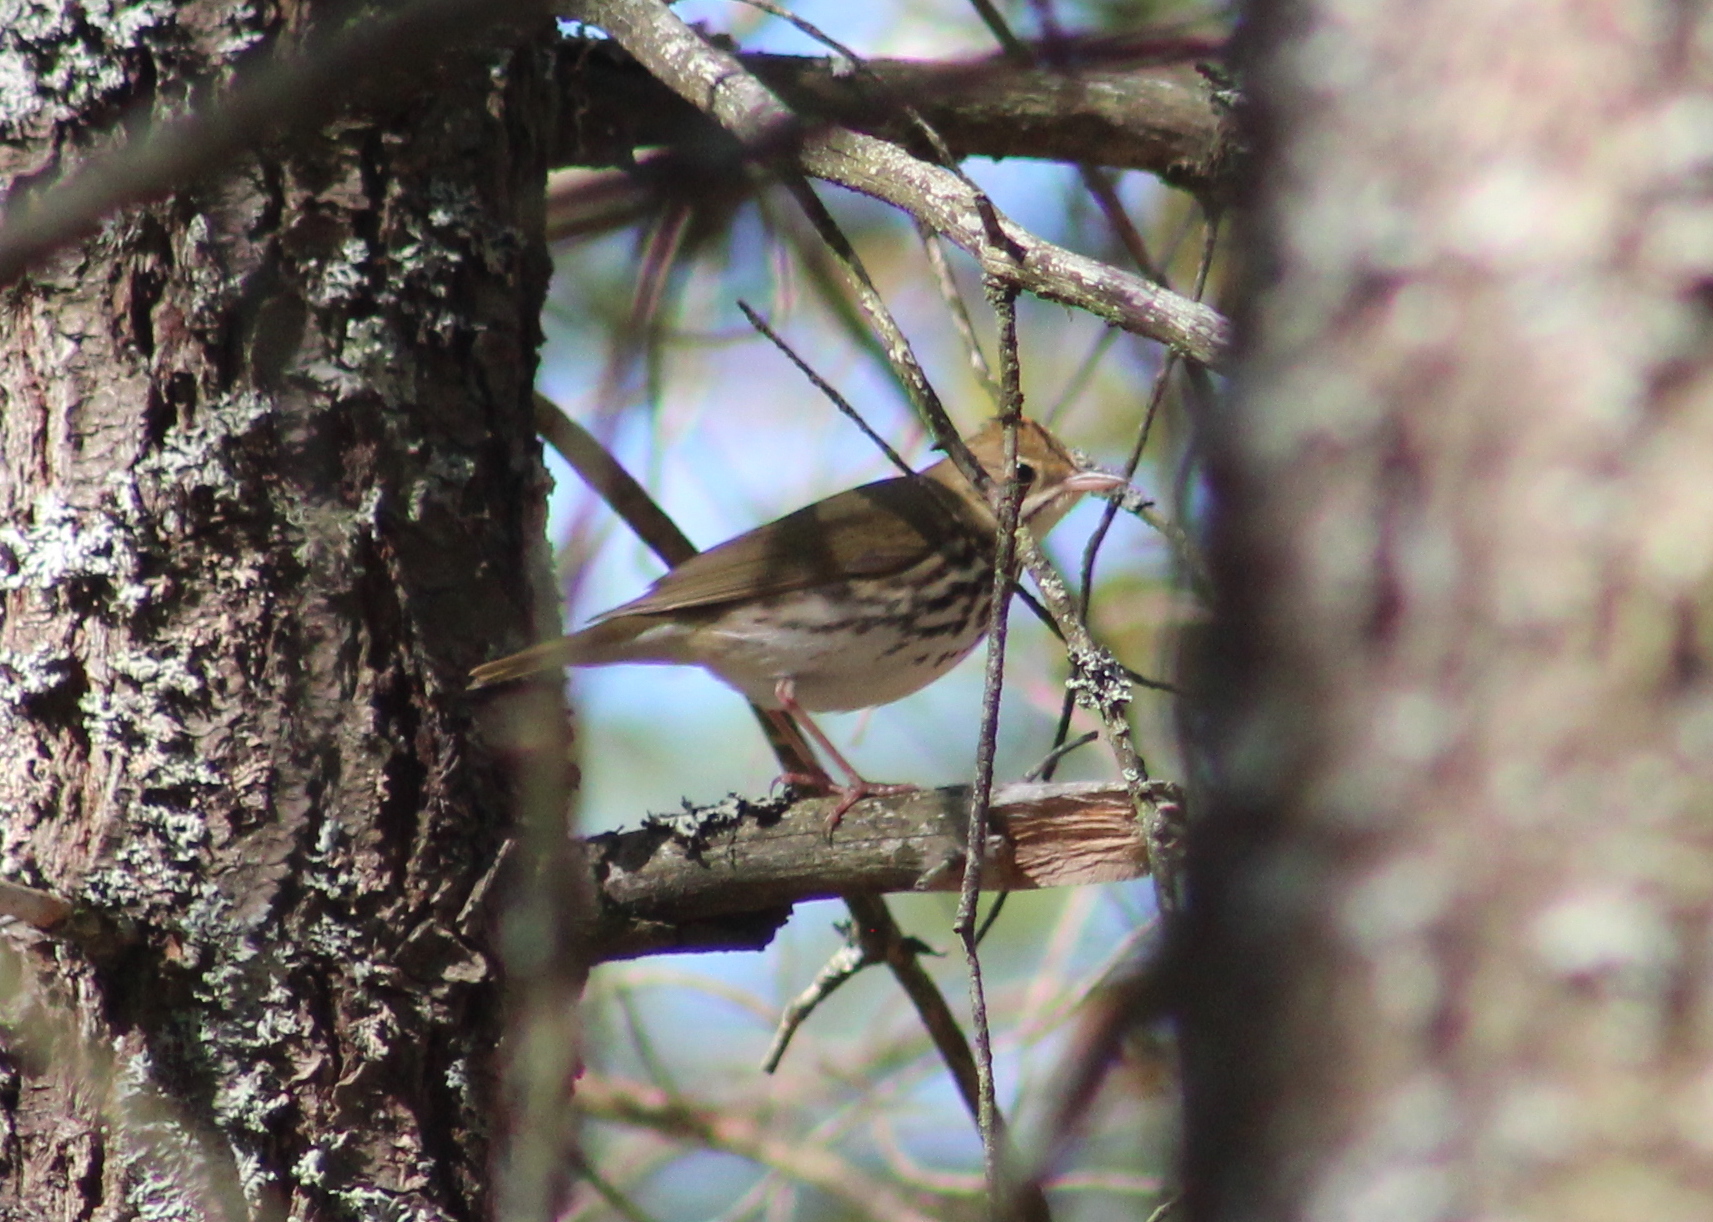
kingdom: Animalia
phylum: Chordata
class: Aves
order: Passeriformes
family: Parulidae
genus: Seiurus
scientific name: Seiurus aurocapilla
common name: Ovenbird
